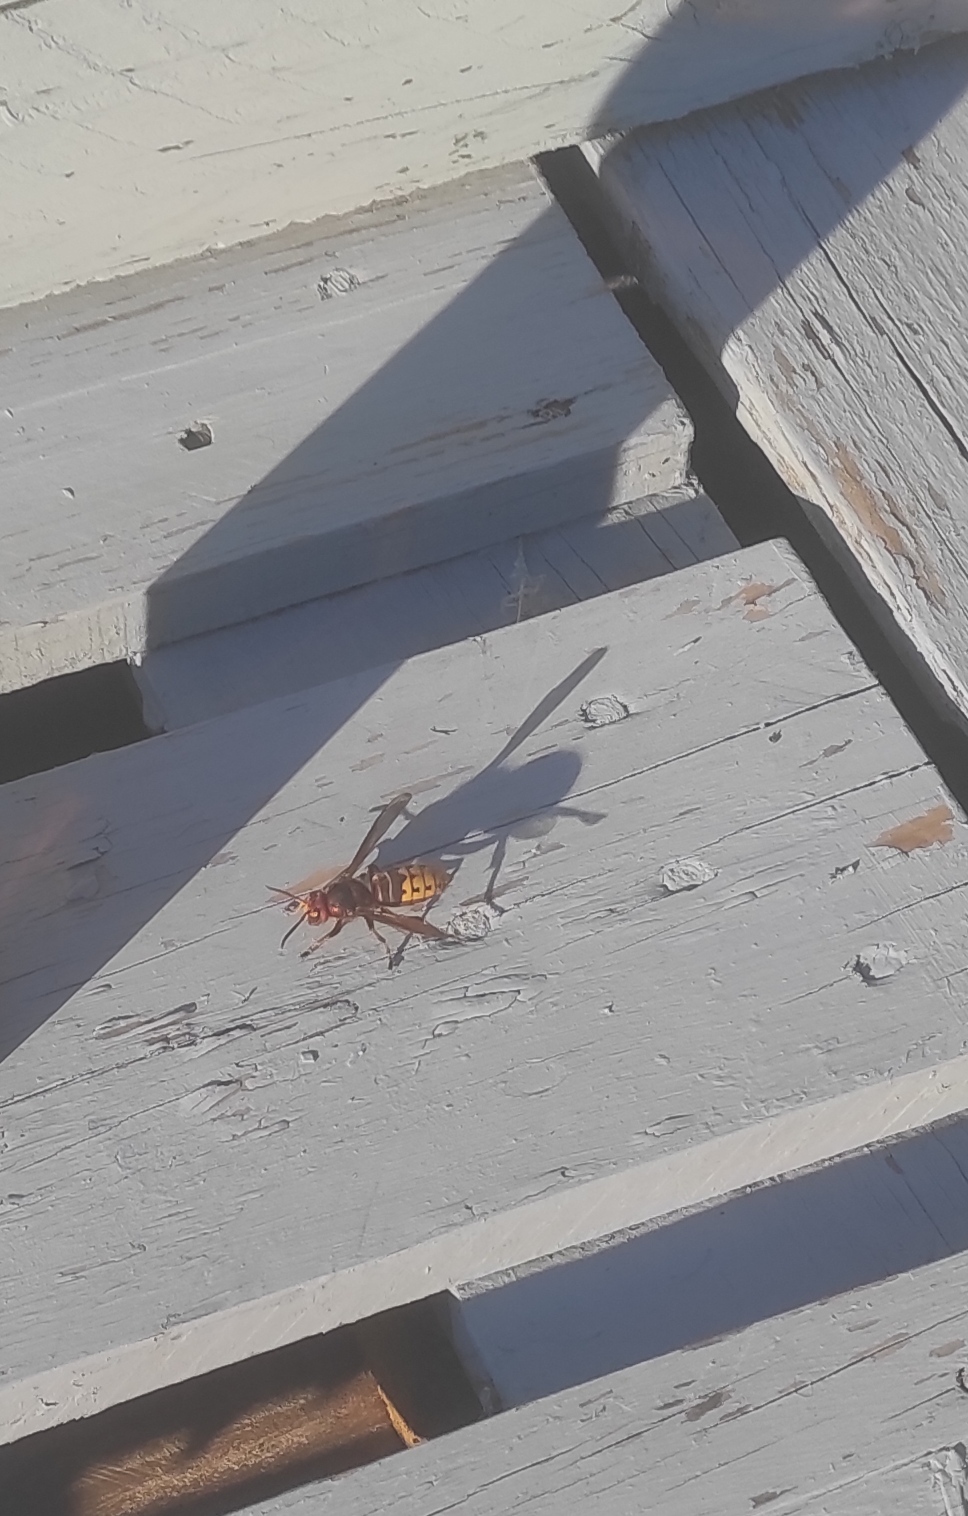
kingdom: Animalia
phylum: Arthropoda
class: Insecta
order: Hymenoptera
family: Vespidae
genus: Vespa
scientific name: Vespa crabro
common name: Hornet
